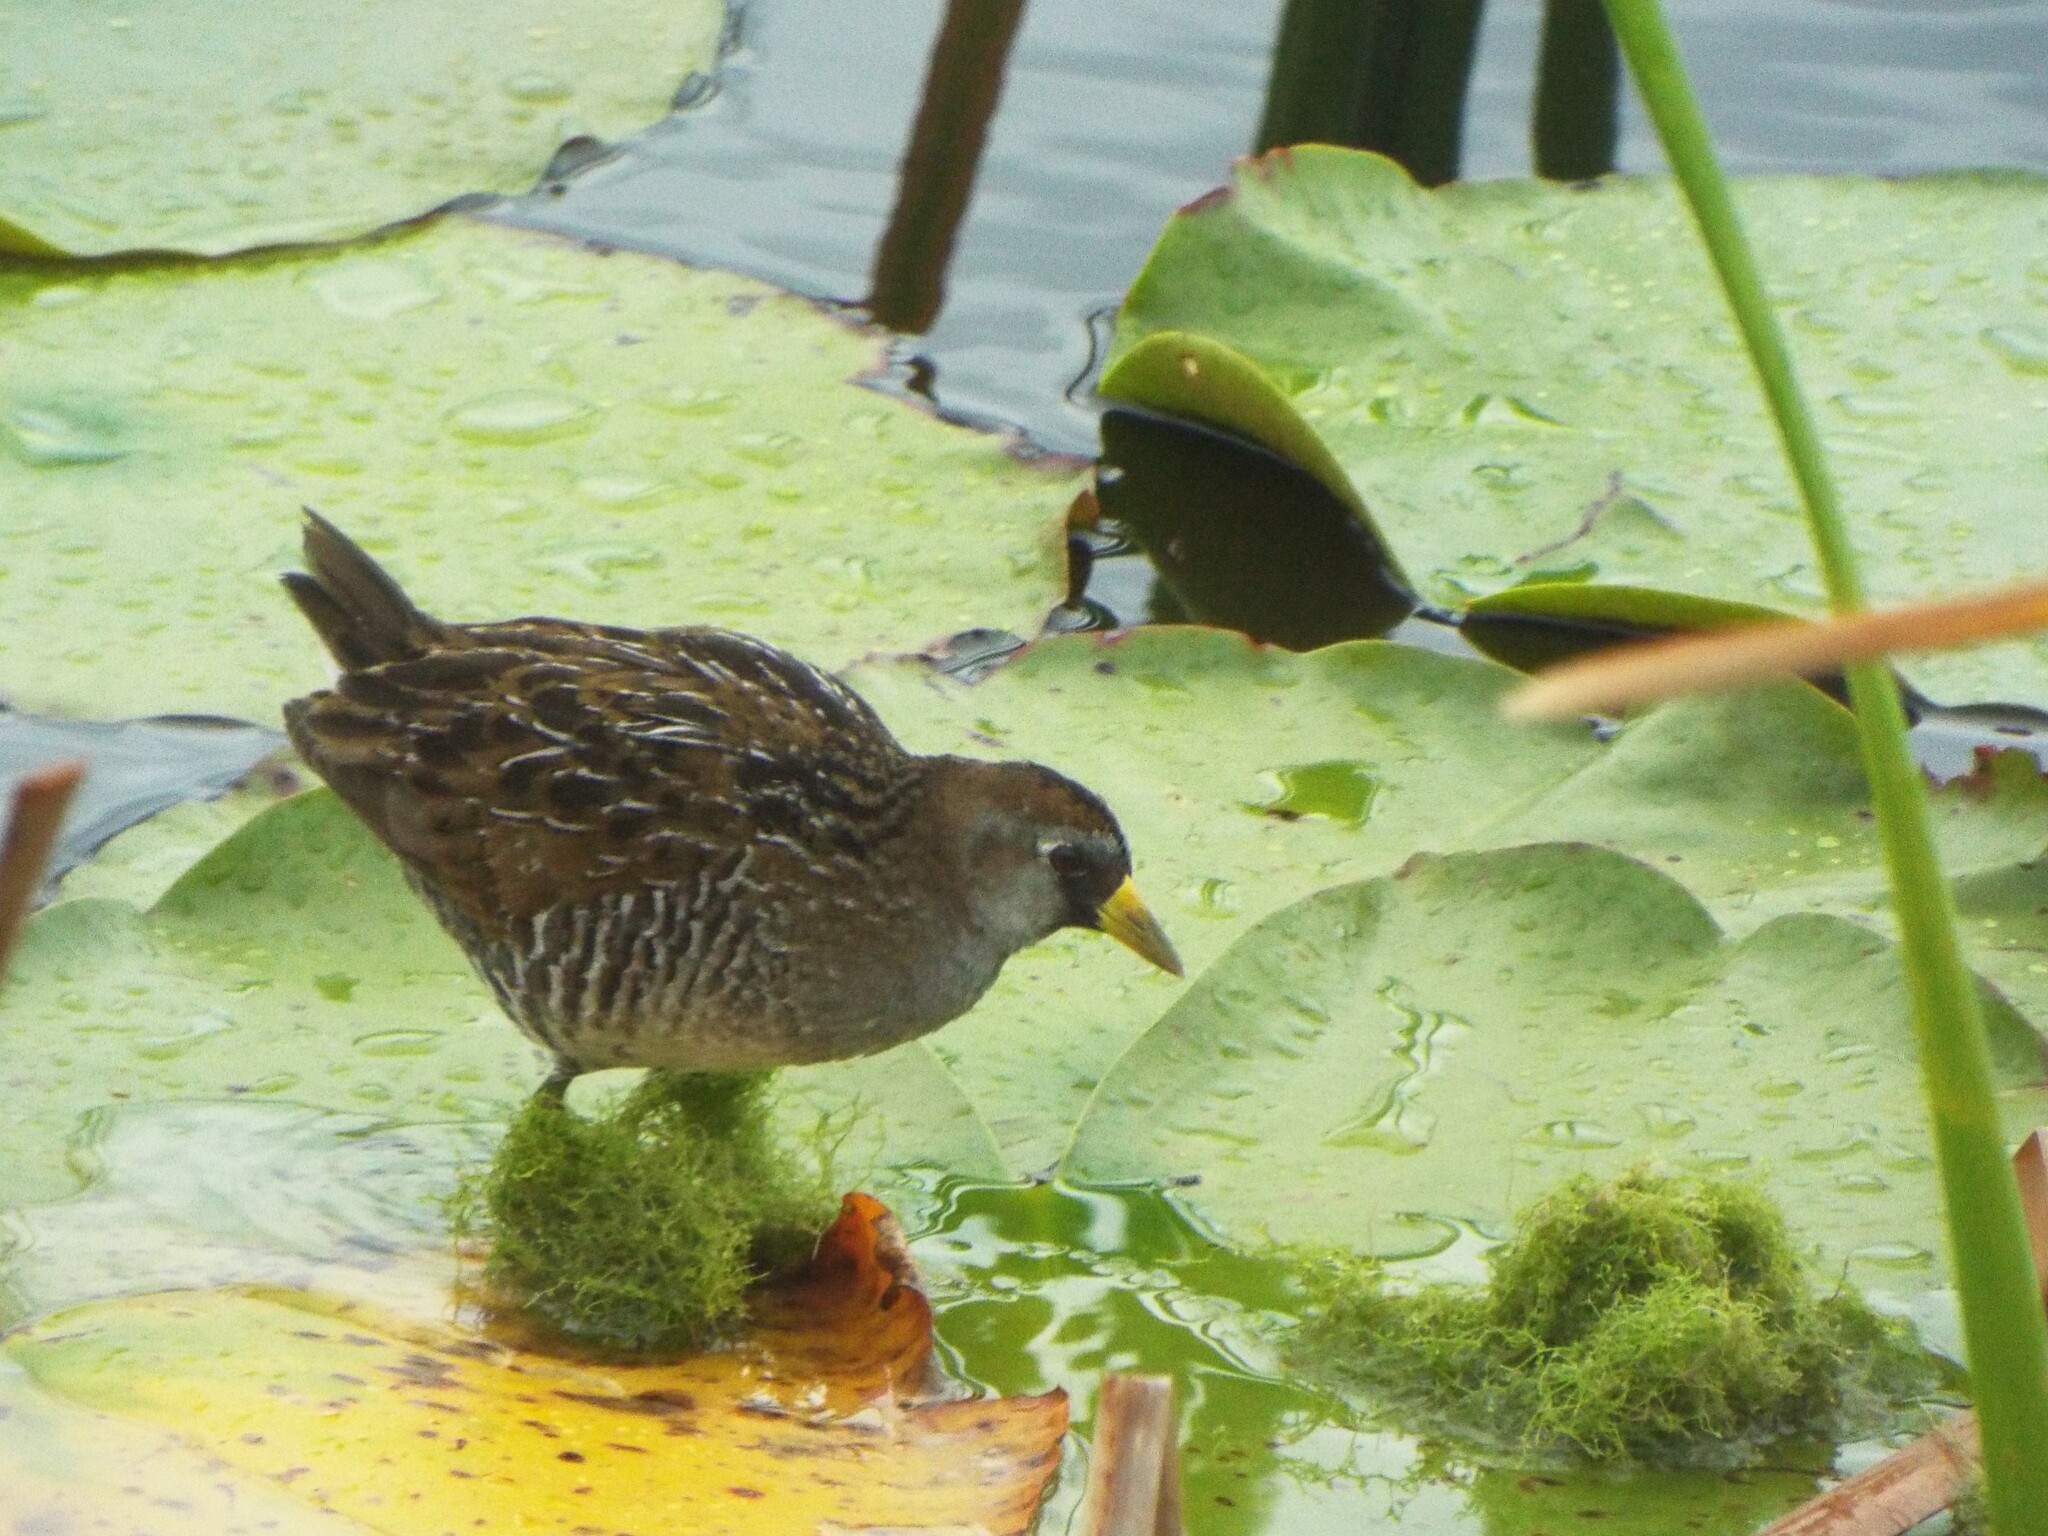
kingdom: Animalia
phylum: Chordata
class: Aves
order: Gruiformes
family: Rallidae
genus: Porzana
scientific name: Porzana carolina
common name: Sora
